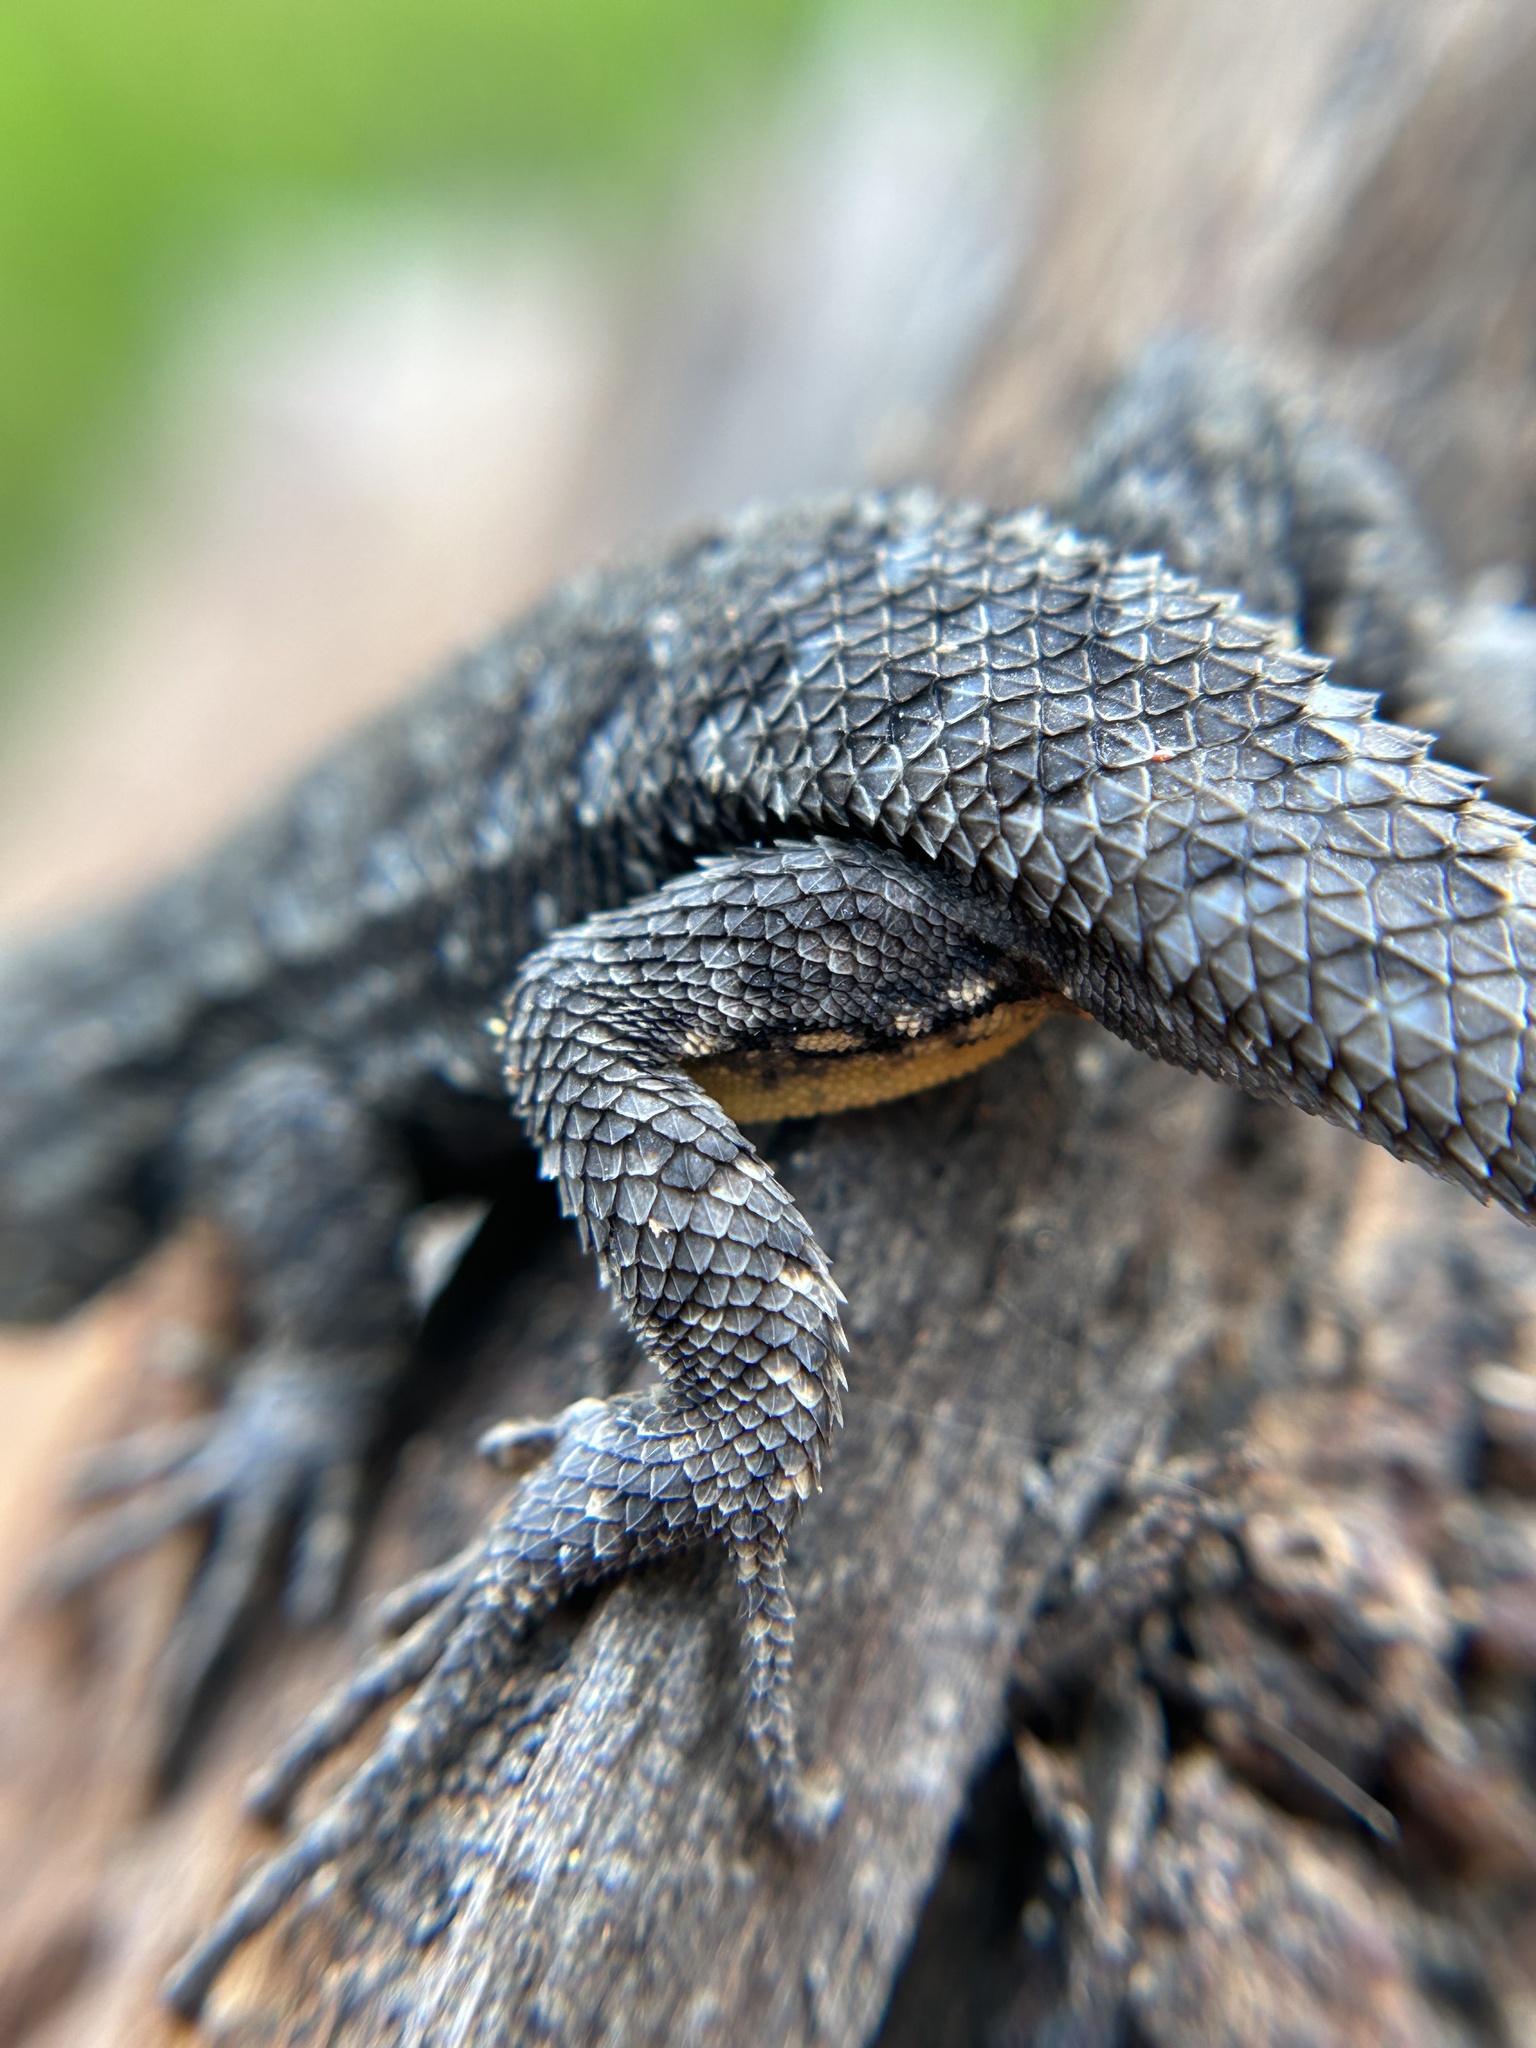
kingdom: Animalia
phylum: Chordata
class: Squamata
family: Phrynosomatidae
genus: Sceloporus
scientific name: Sceloporus occidentalis
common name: Western fence lizard
